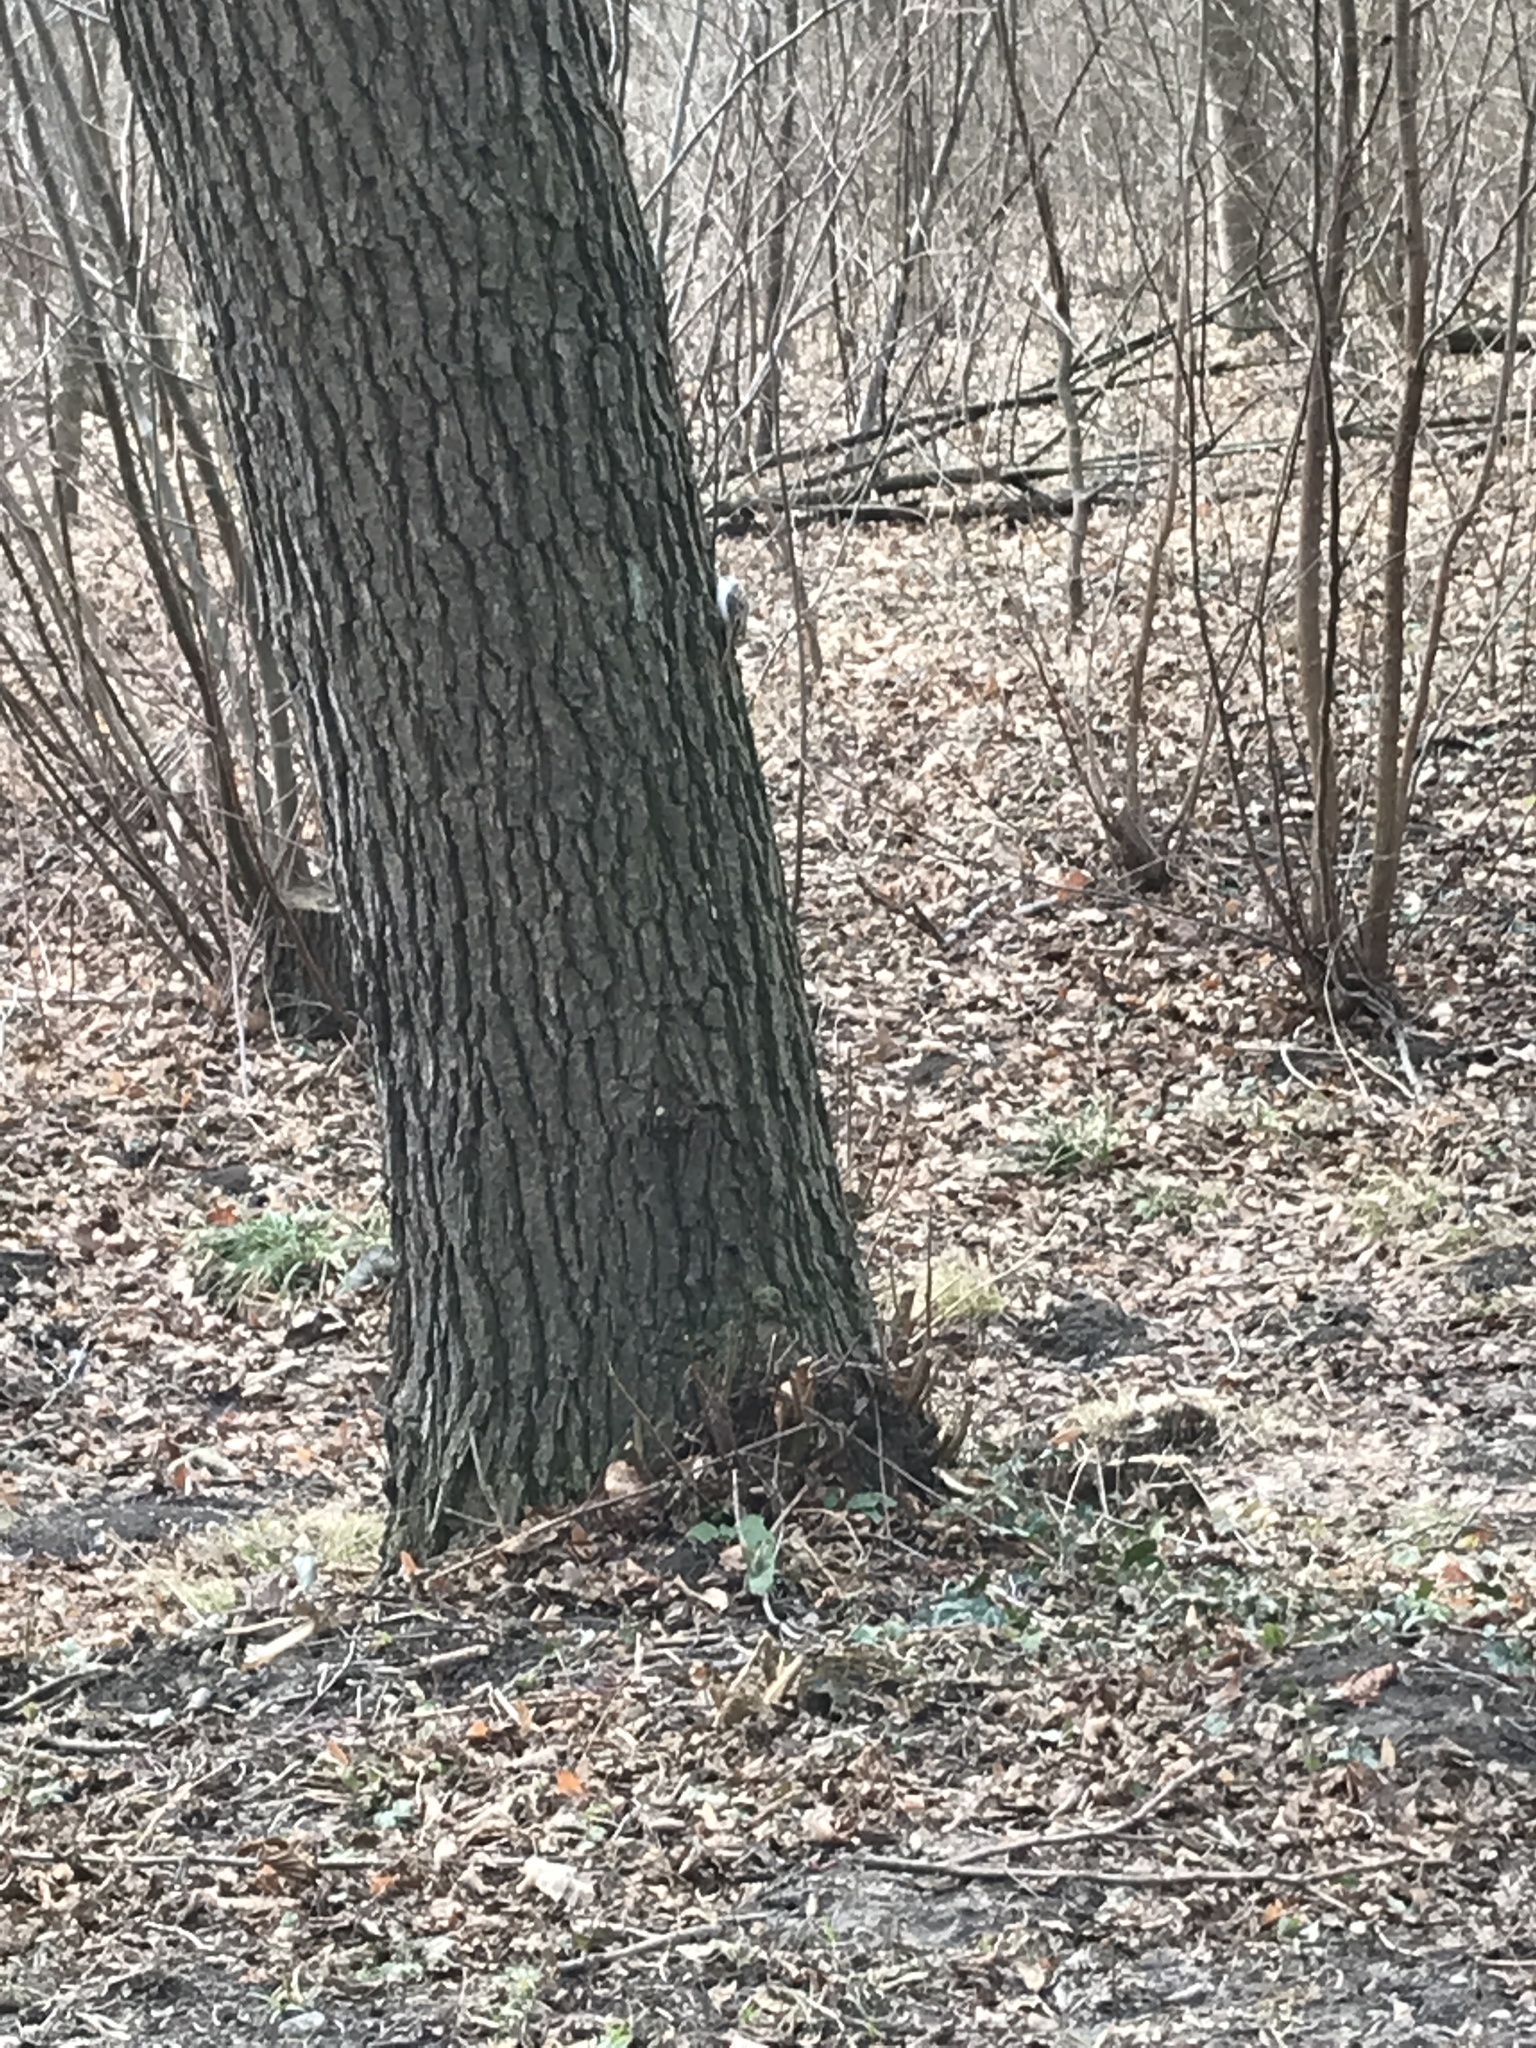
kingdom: Animalia
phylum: Chordata
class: Aves
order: Passeriformes
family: Certhiidae
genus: Certhia
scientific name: Certhia
